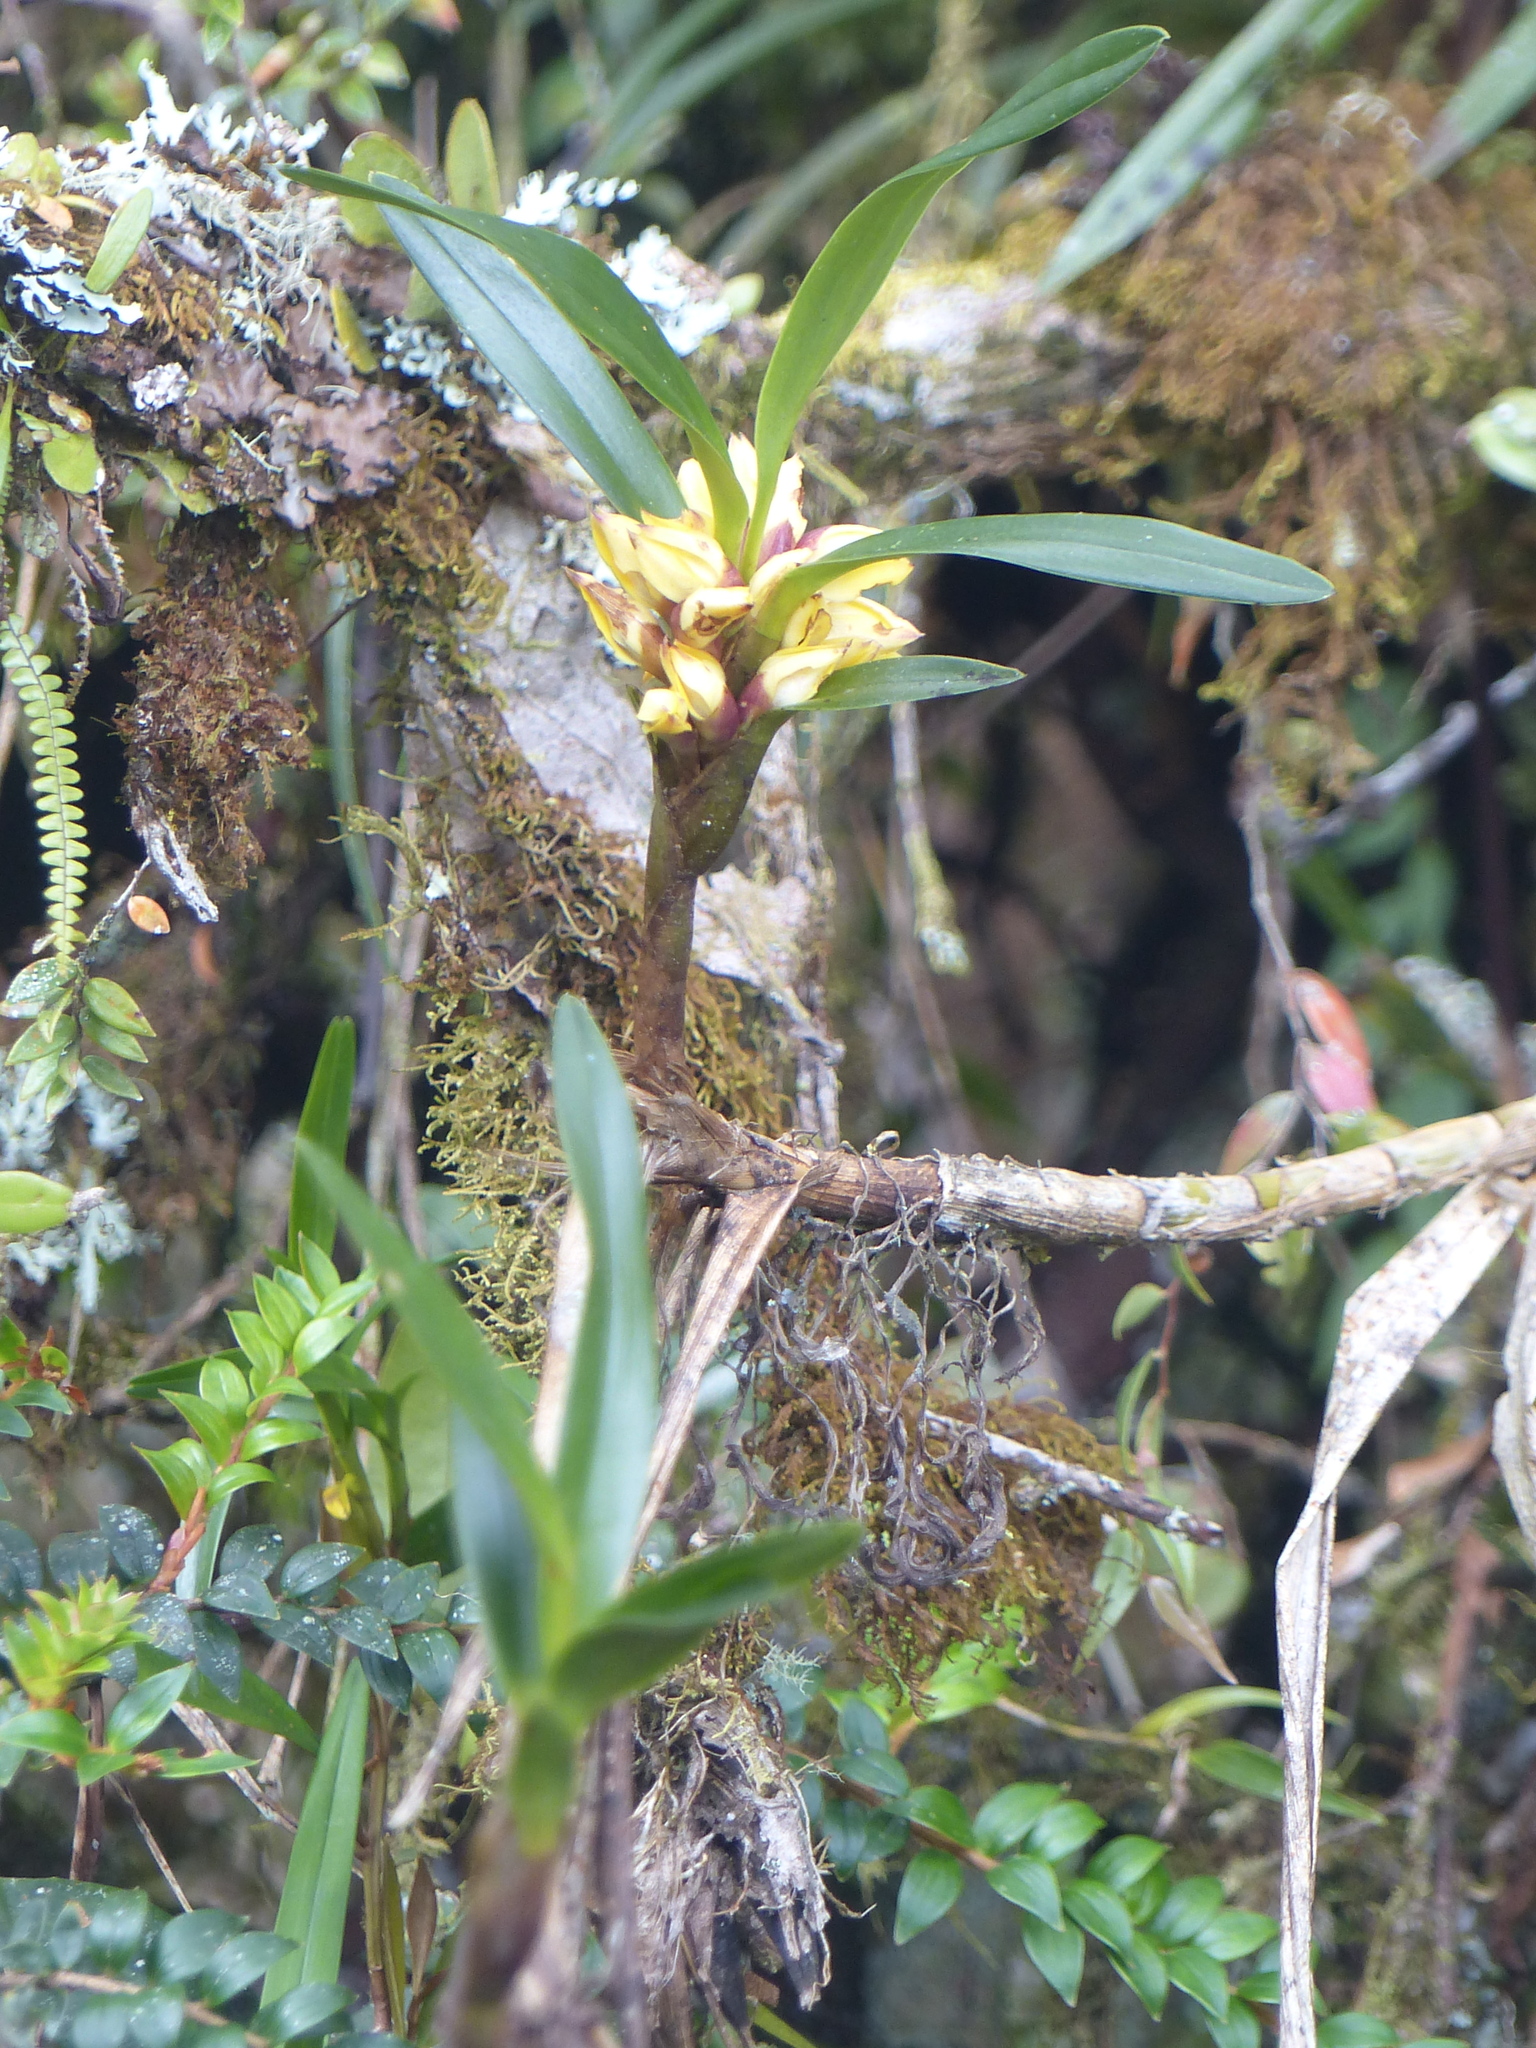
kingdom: Plantae
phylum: Tracheophyta
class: Liliopsida
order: Asparagales
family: Orchidaceae
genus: Maxillaria
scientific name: Maxillaria embreei
